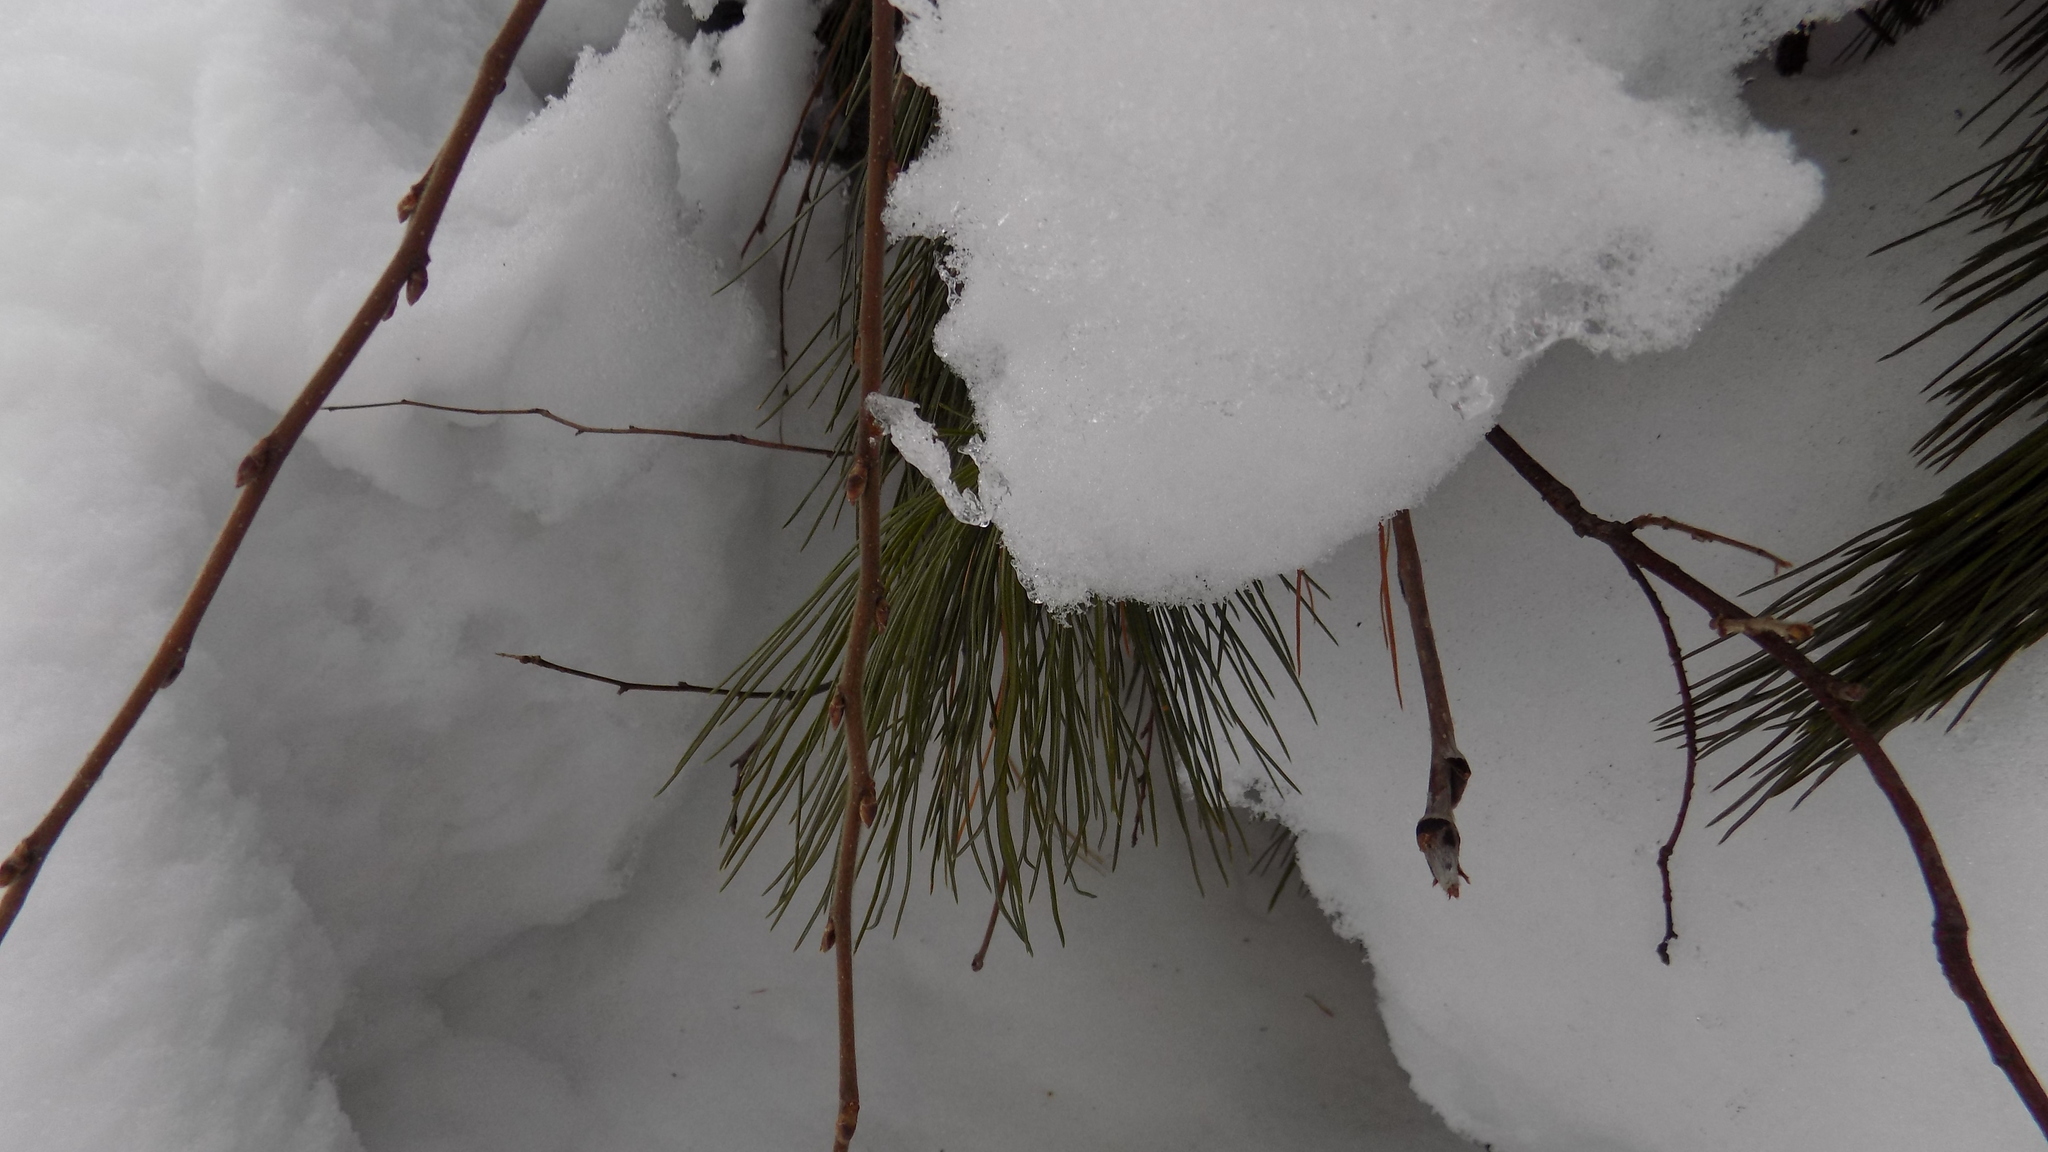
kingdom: Plantae
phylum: Tracheophyta
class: Pinopsida
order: Pinales
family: Pinaceae
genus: Pinus
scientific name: Pinus sibirica
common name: Siberian pine
